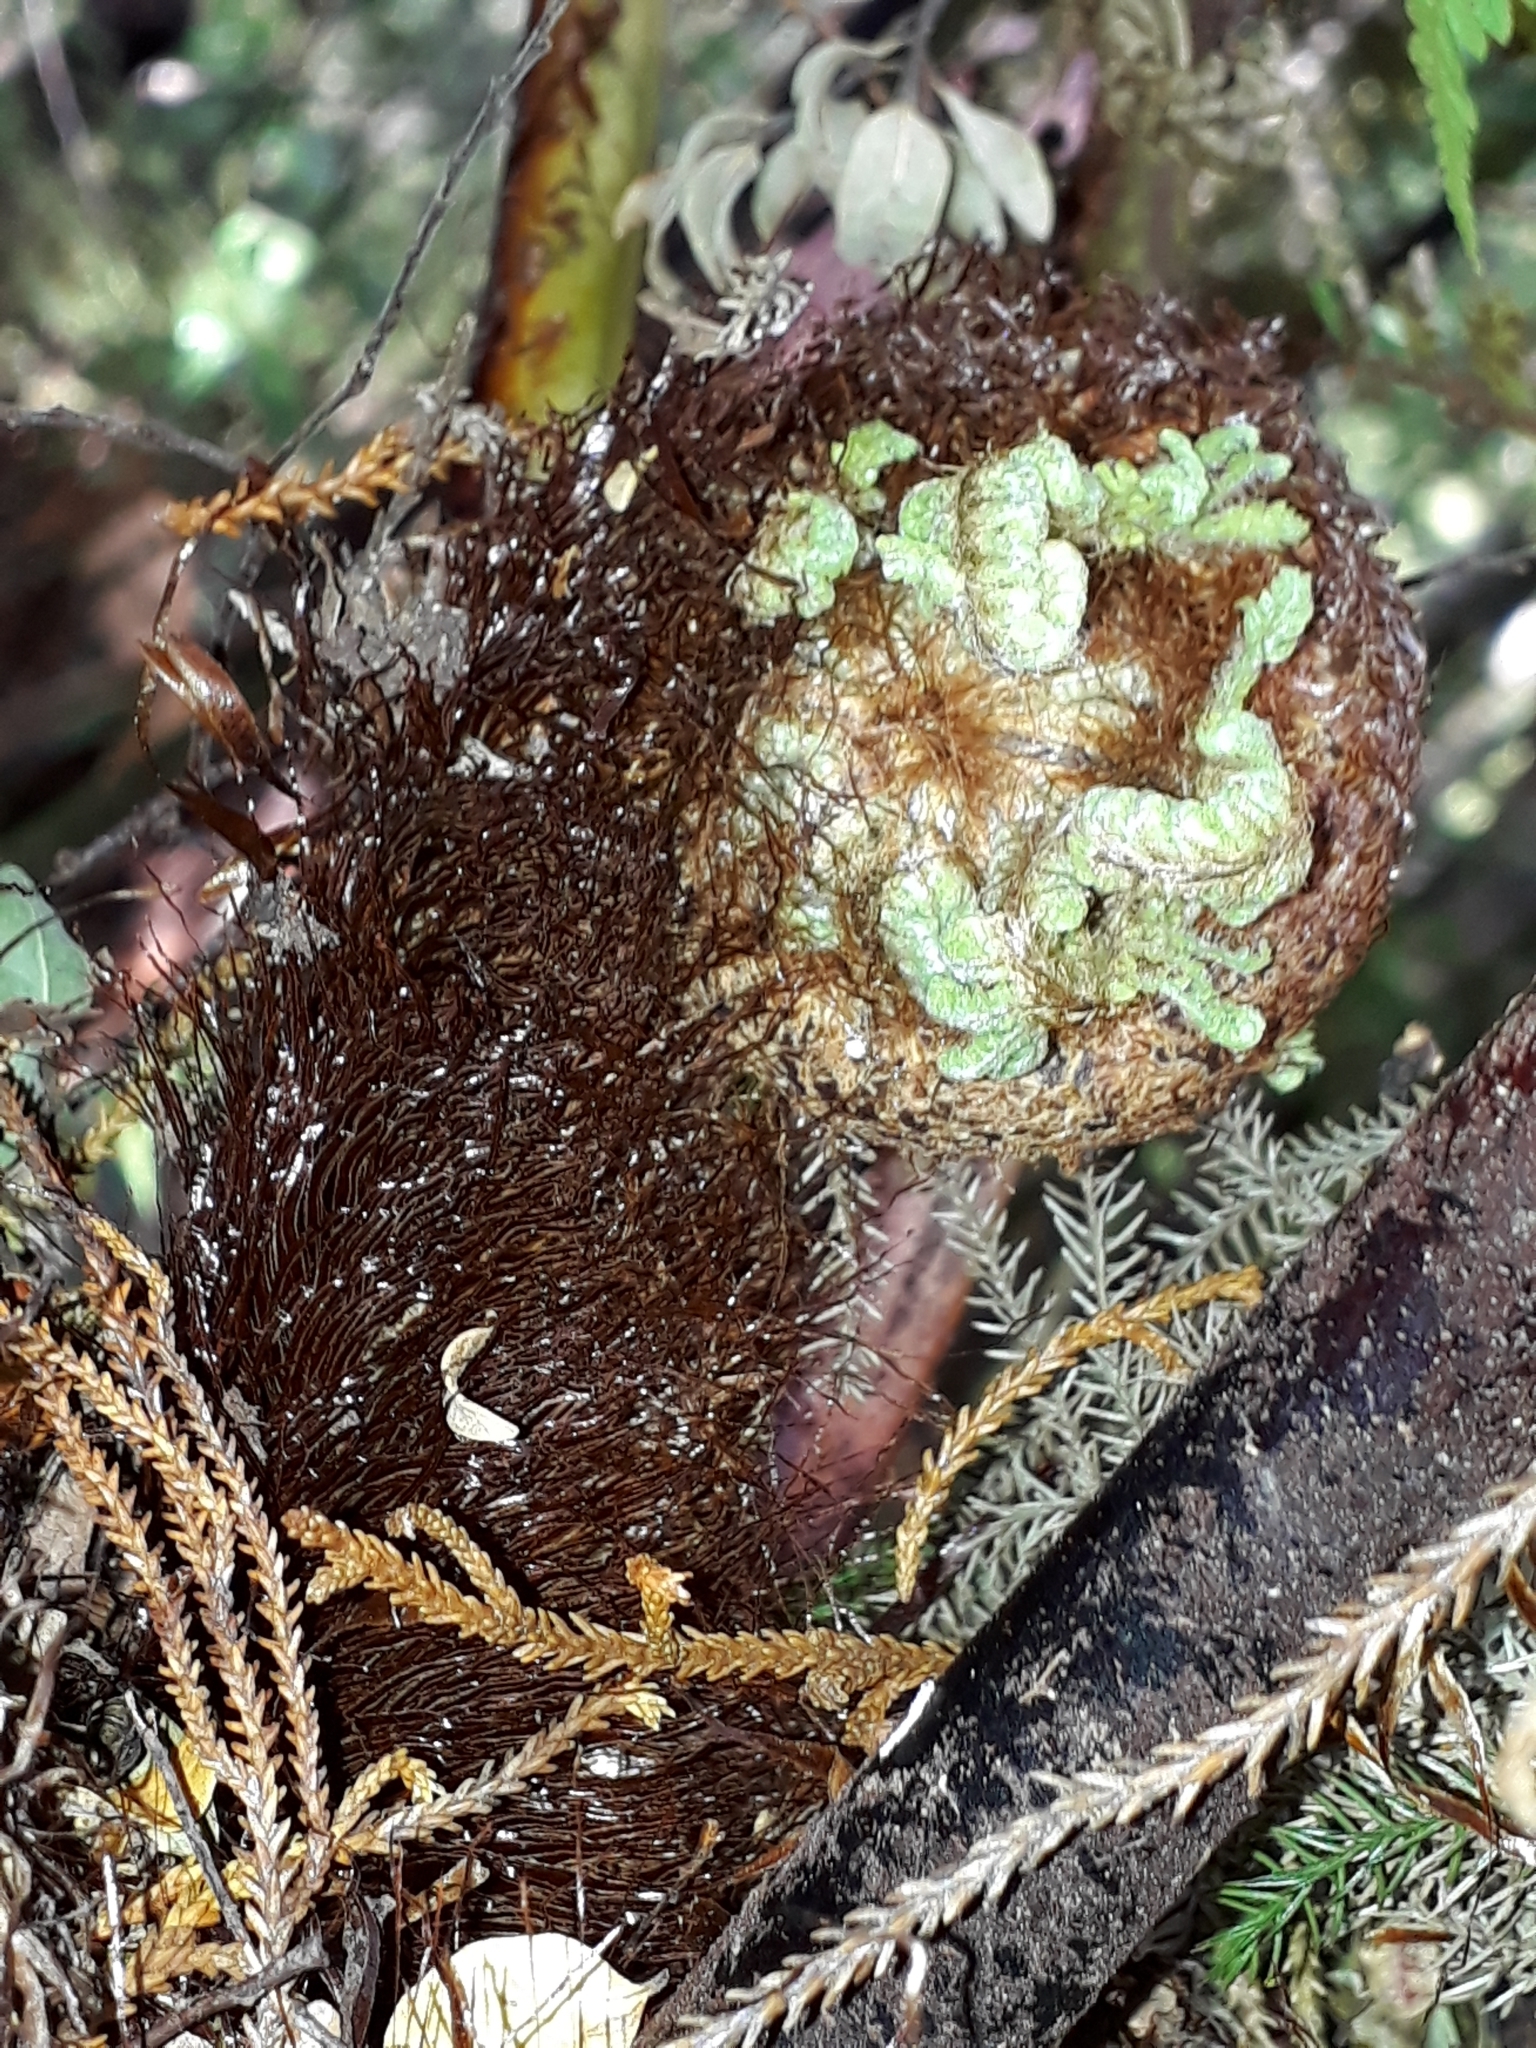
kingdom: Plantae
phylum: Tracheophyta
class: Polypodiopsida
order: Cyatheales
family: Cyatheaceae
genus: Alsophila
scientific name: Alsophila smithii
